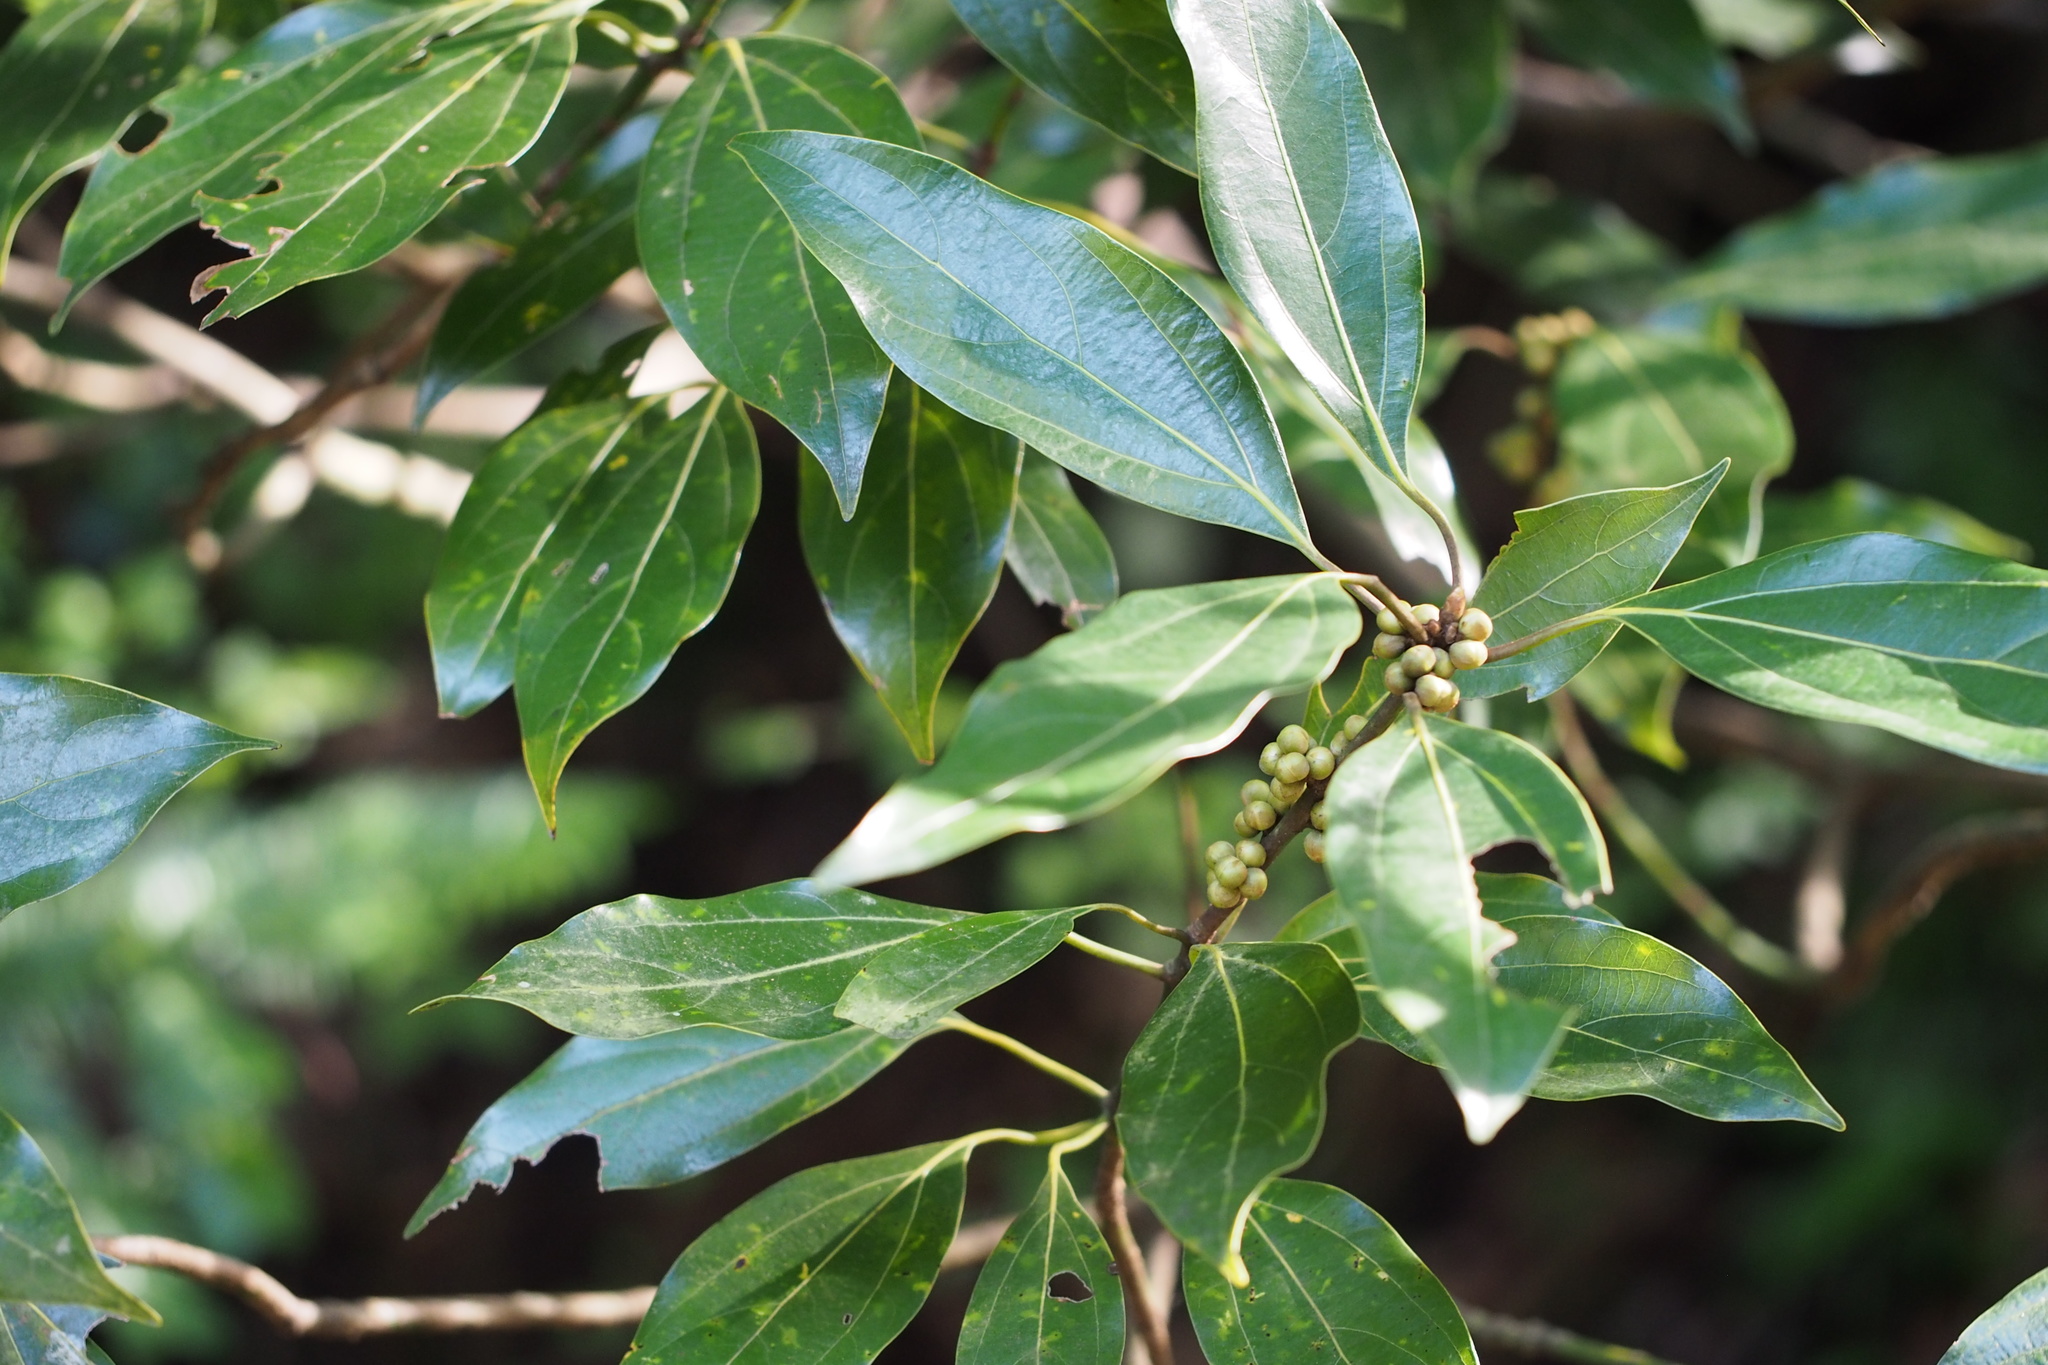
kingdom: Plantae
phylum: Tracheophyta
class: Magnoliopsida
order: Laurales
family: Lauraceae
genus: Neolitsea
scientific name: Neolitsea sericea
